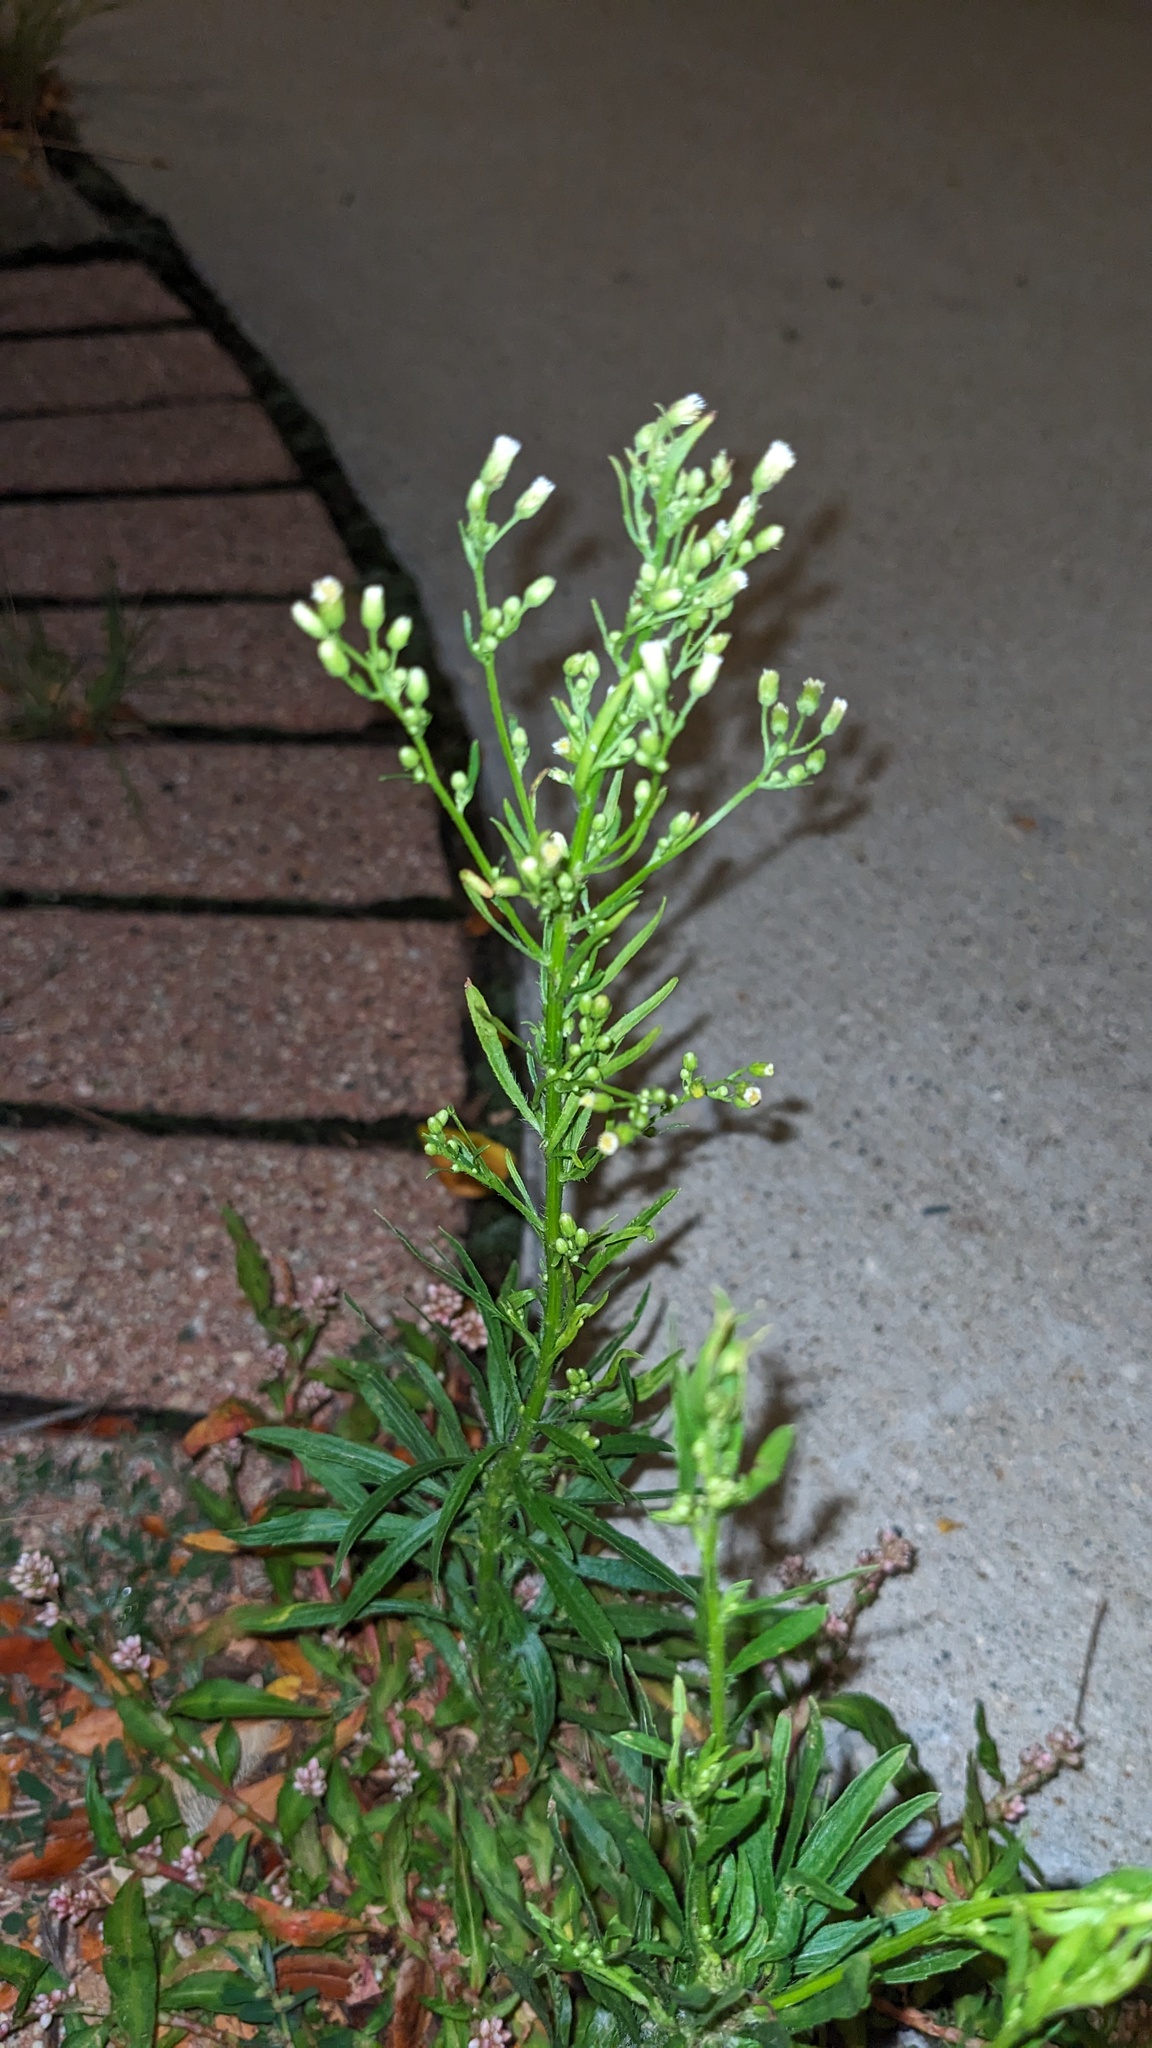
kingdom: Plantae
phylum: Tracheophyta
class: Magnoliopsida
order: Asterales
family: Asteraceae
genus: Erigeron
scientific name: Erigeron canadensis
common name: Canadian fleabane
